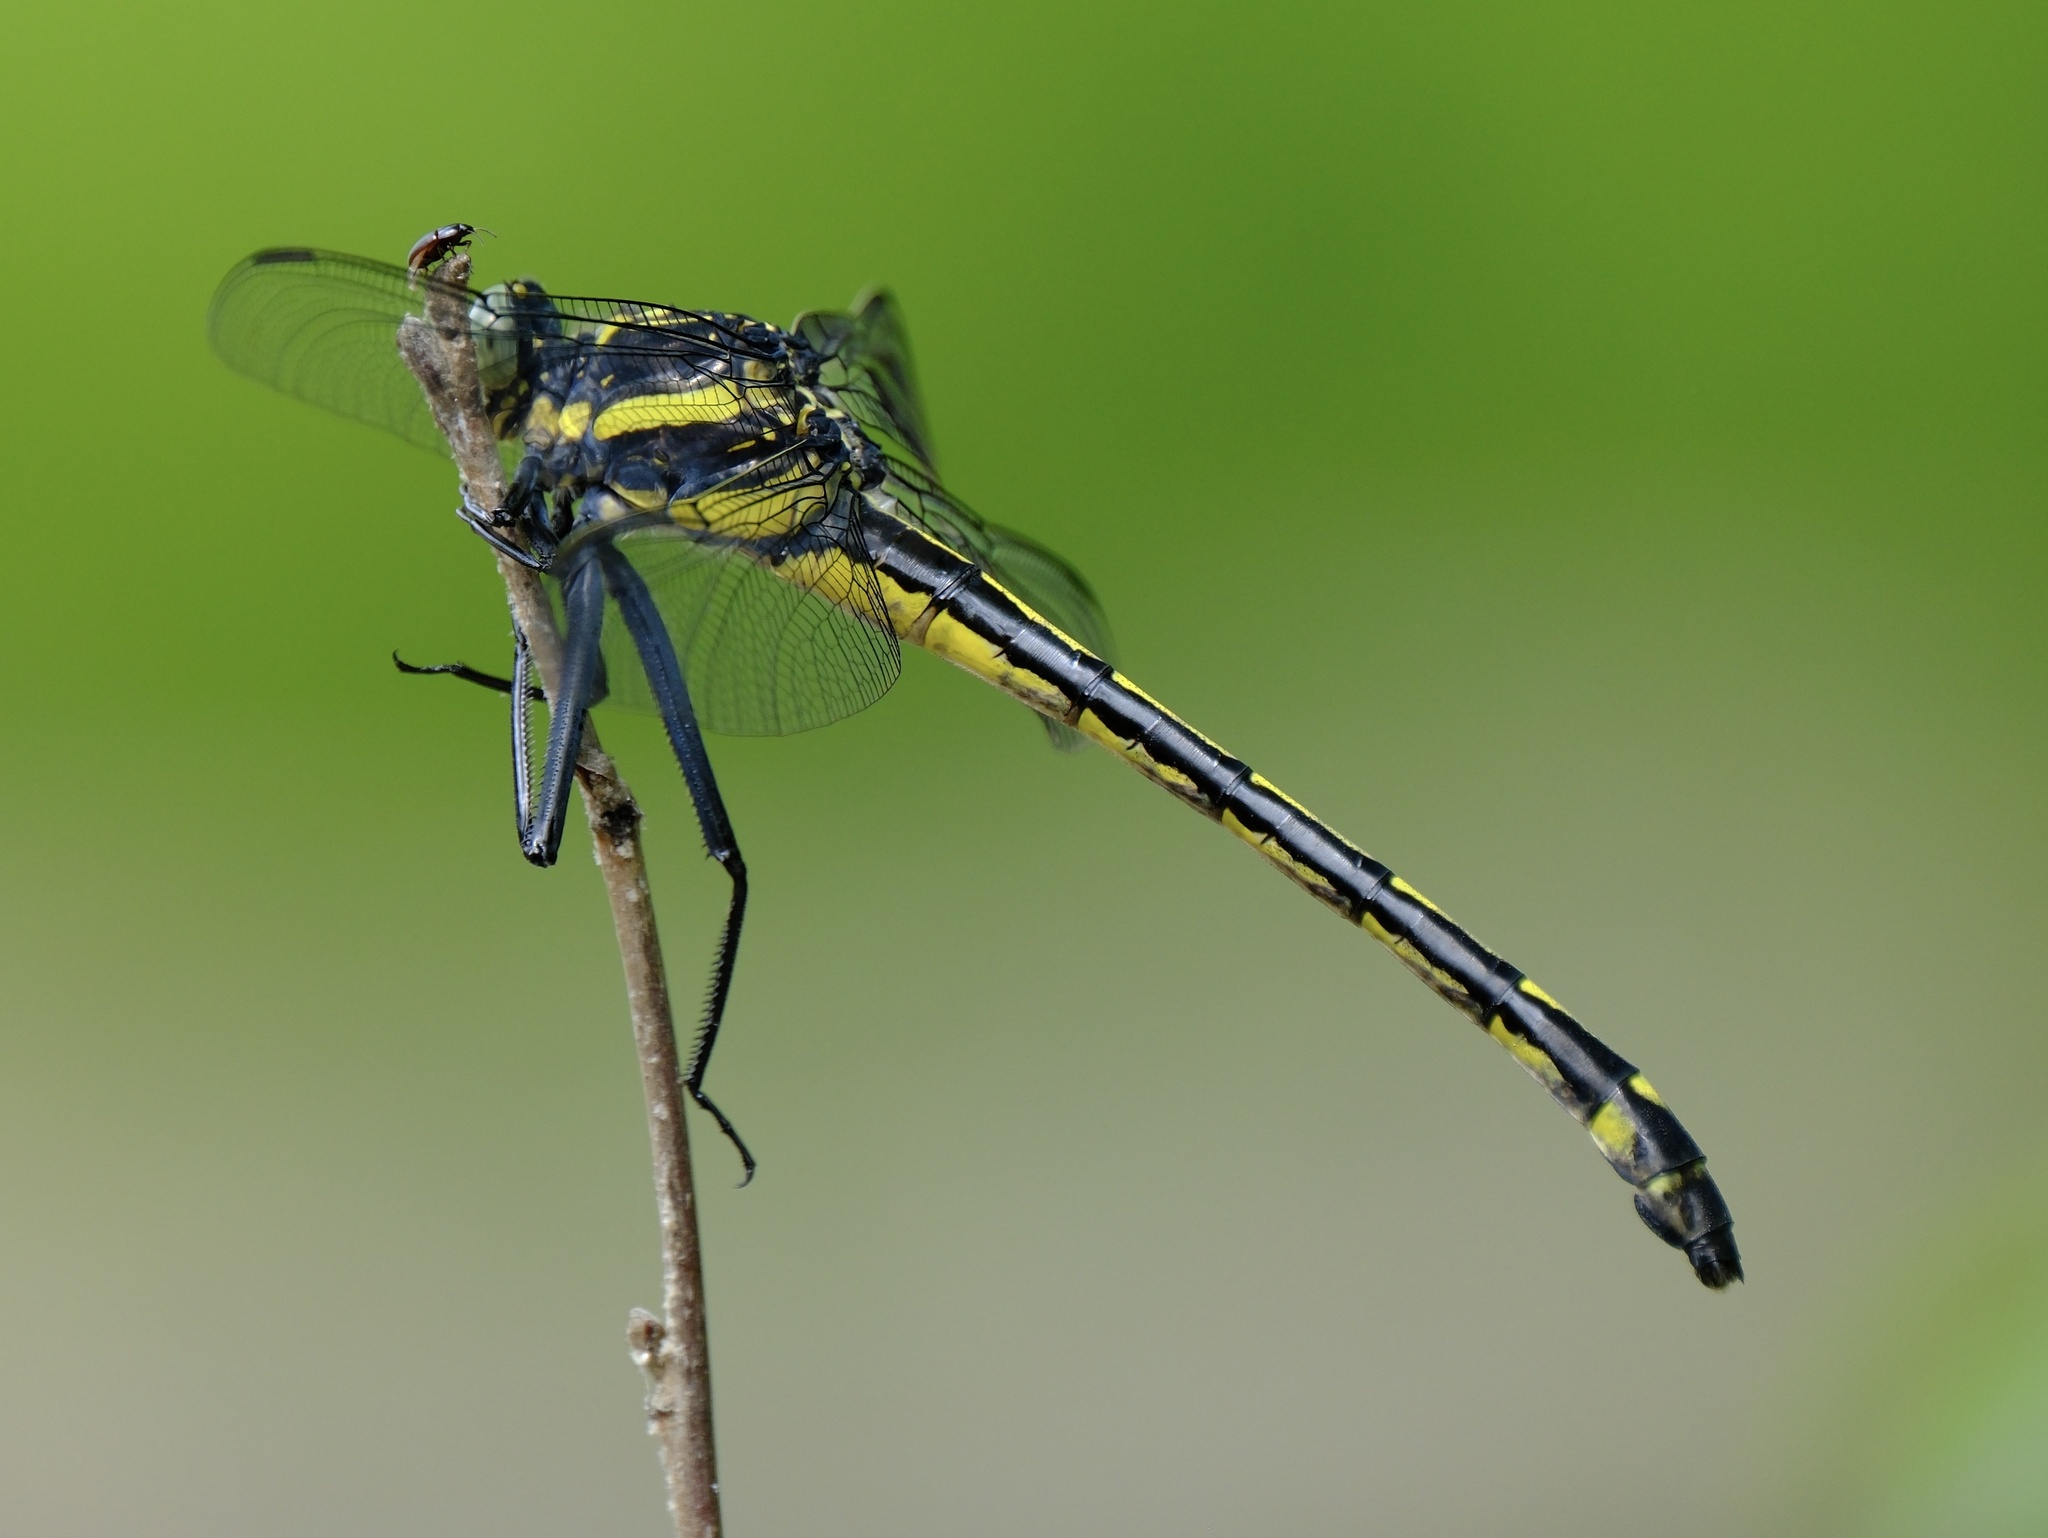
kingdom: Animalia
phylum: Arthropoda
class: Insecta
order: Odonata
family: Gomphidae
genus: Hagenius
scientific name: Hagenius brevistylus
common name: Dragonhunter
